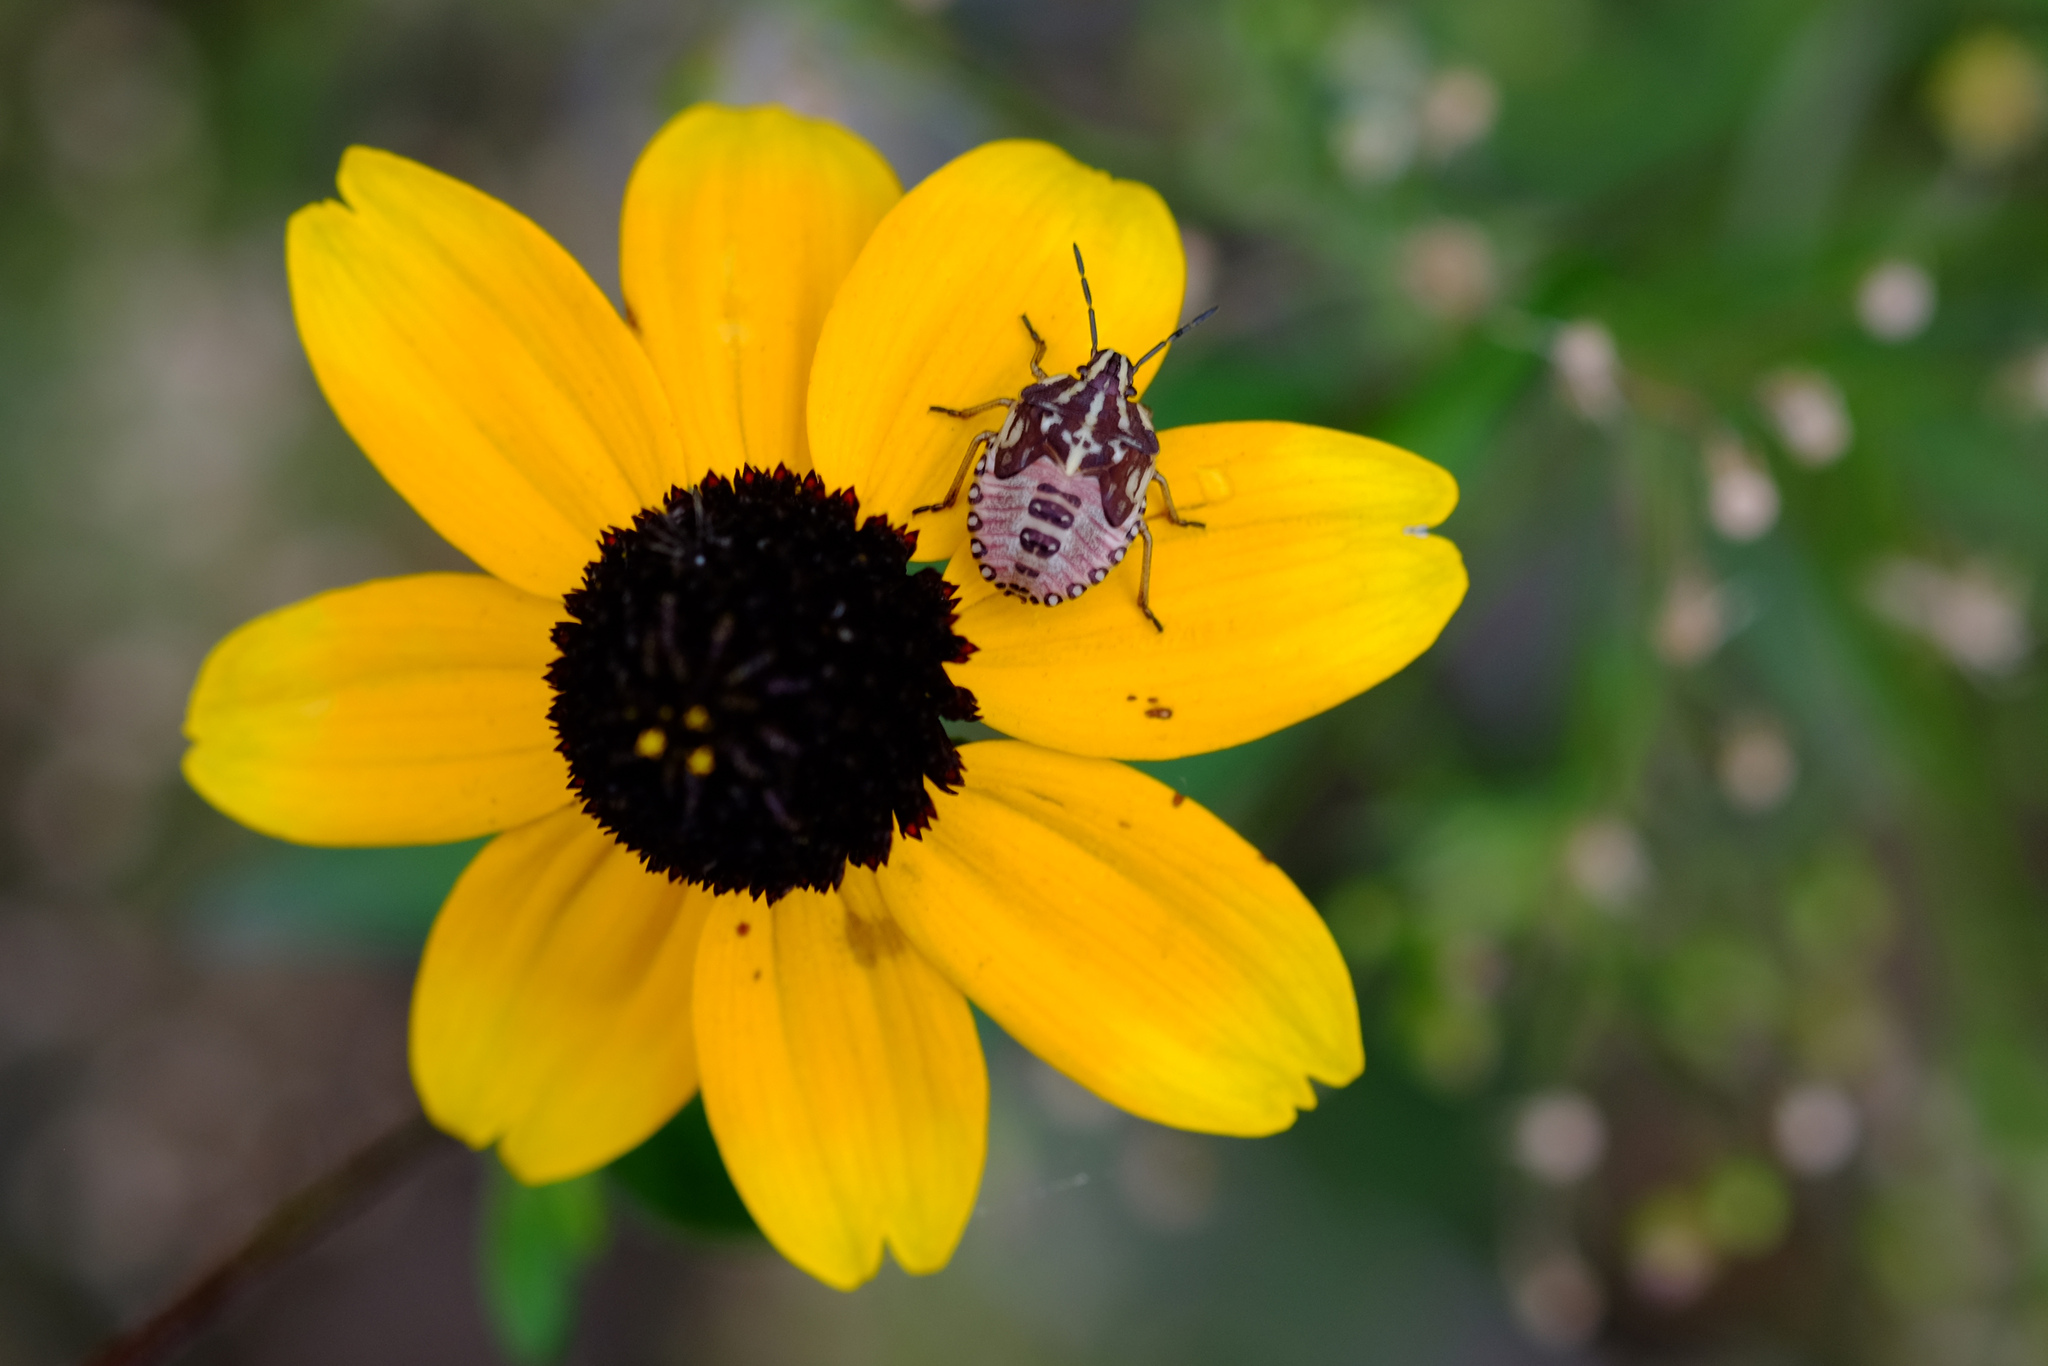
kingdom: Animalia
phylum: Arthropoda
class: Insecta
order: Hemiptera
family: Pentatomidae
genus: Carpocoris
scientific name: Carpocoris purpureipennis
